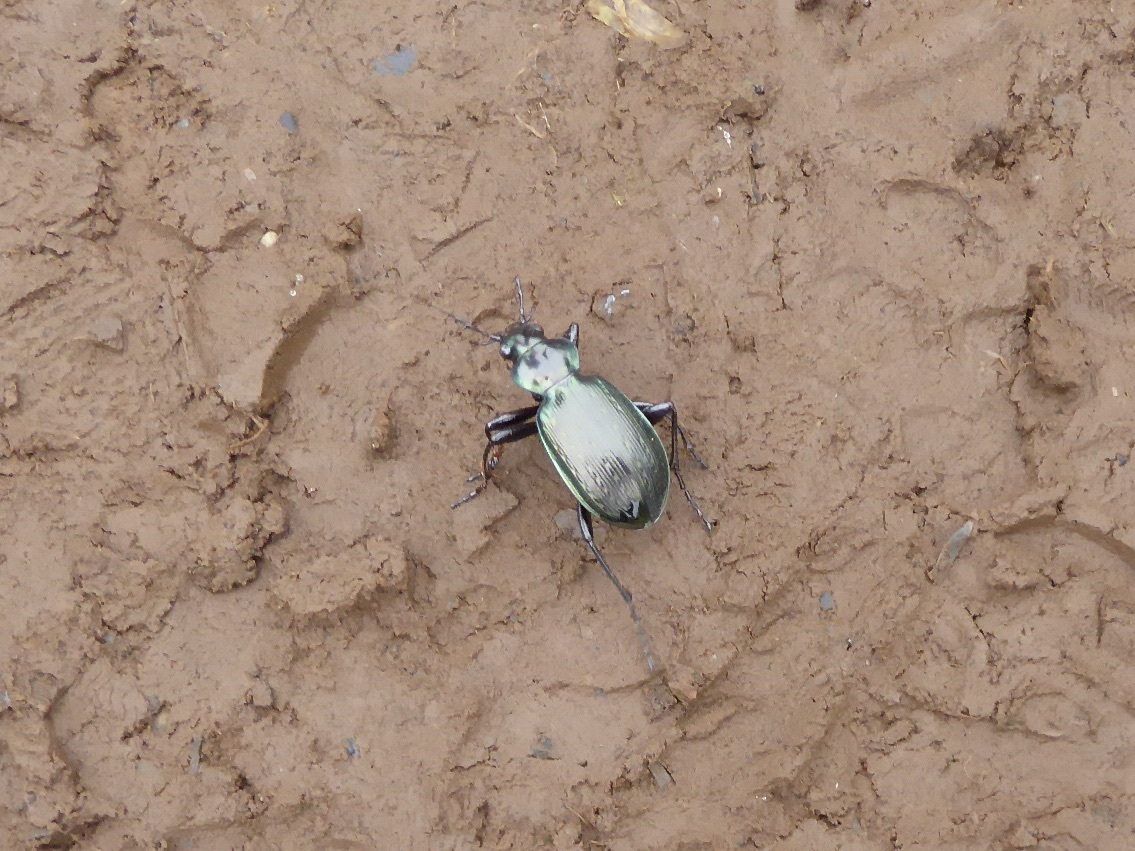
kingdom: Animalia
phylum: Arthropoda
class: Insecta
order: Coleoptera
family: Carabidae
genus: Calosoma
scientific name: Calosoma granatense
